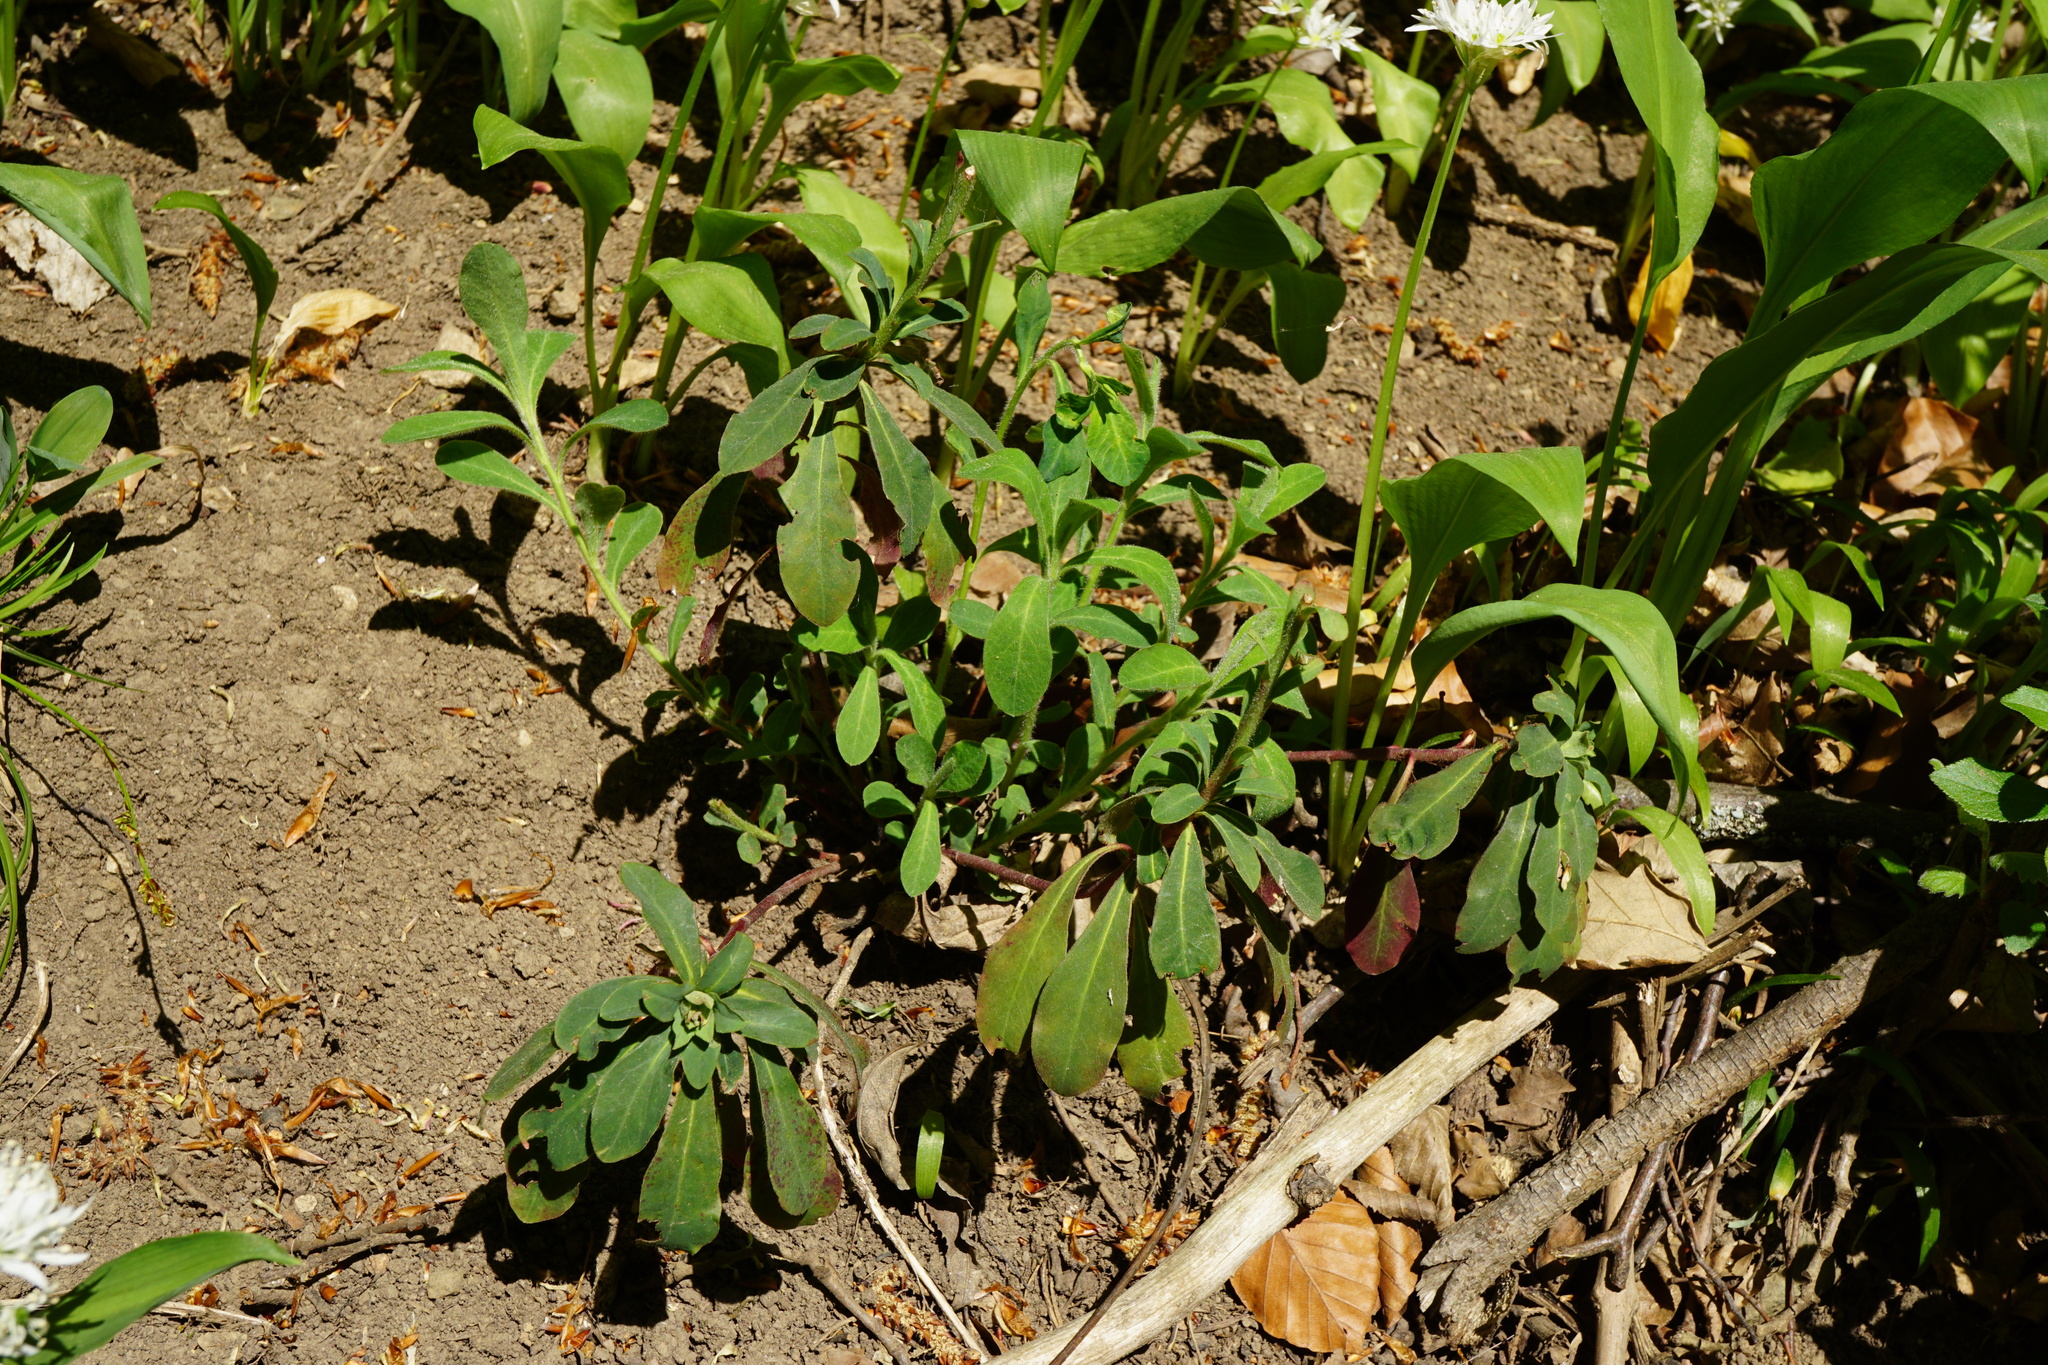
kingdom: Plantae
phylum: Tracheophyta
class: Magnoliopsida
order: Malpighiales
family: Euphorbiaceae
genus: Euphorbia
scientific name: Euphorbia amygdaloides
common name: Wood spurge
